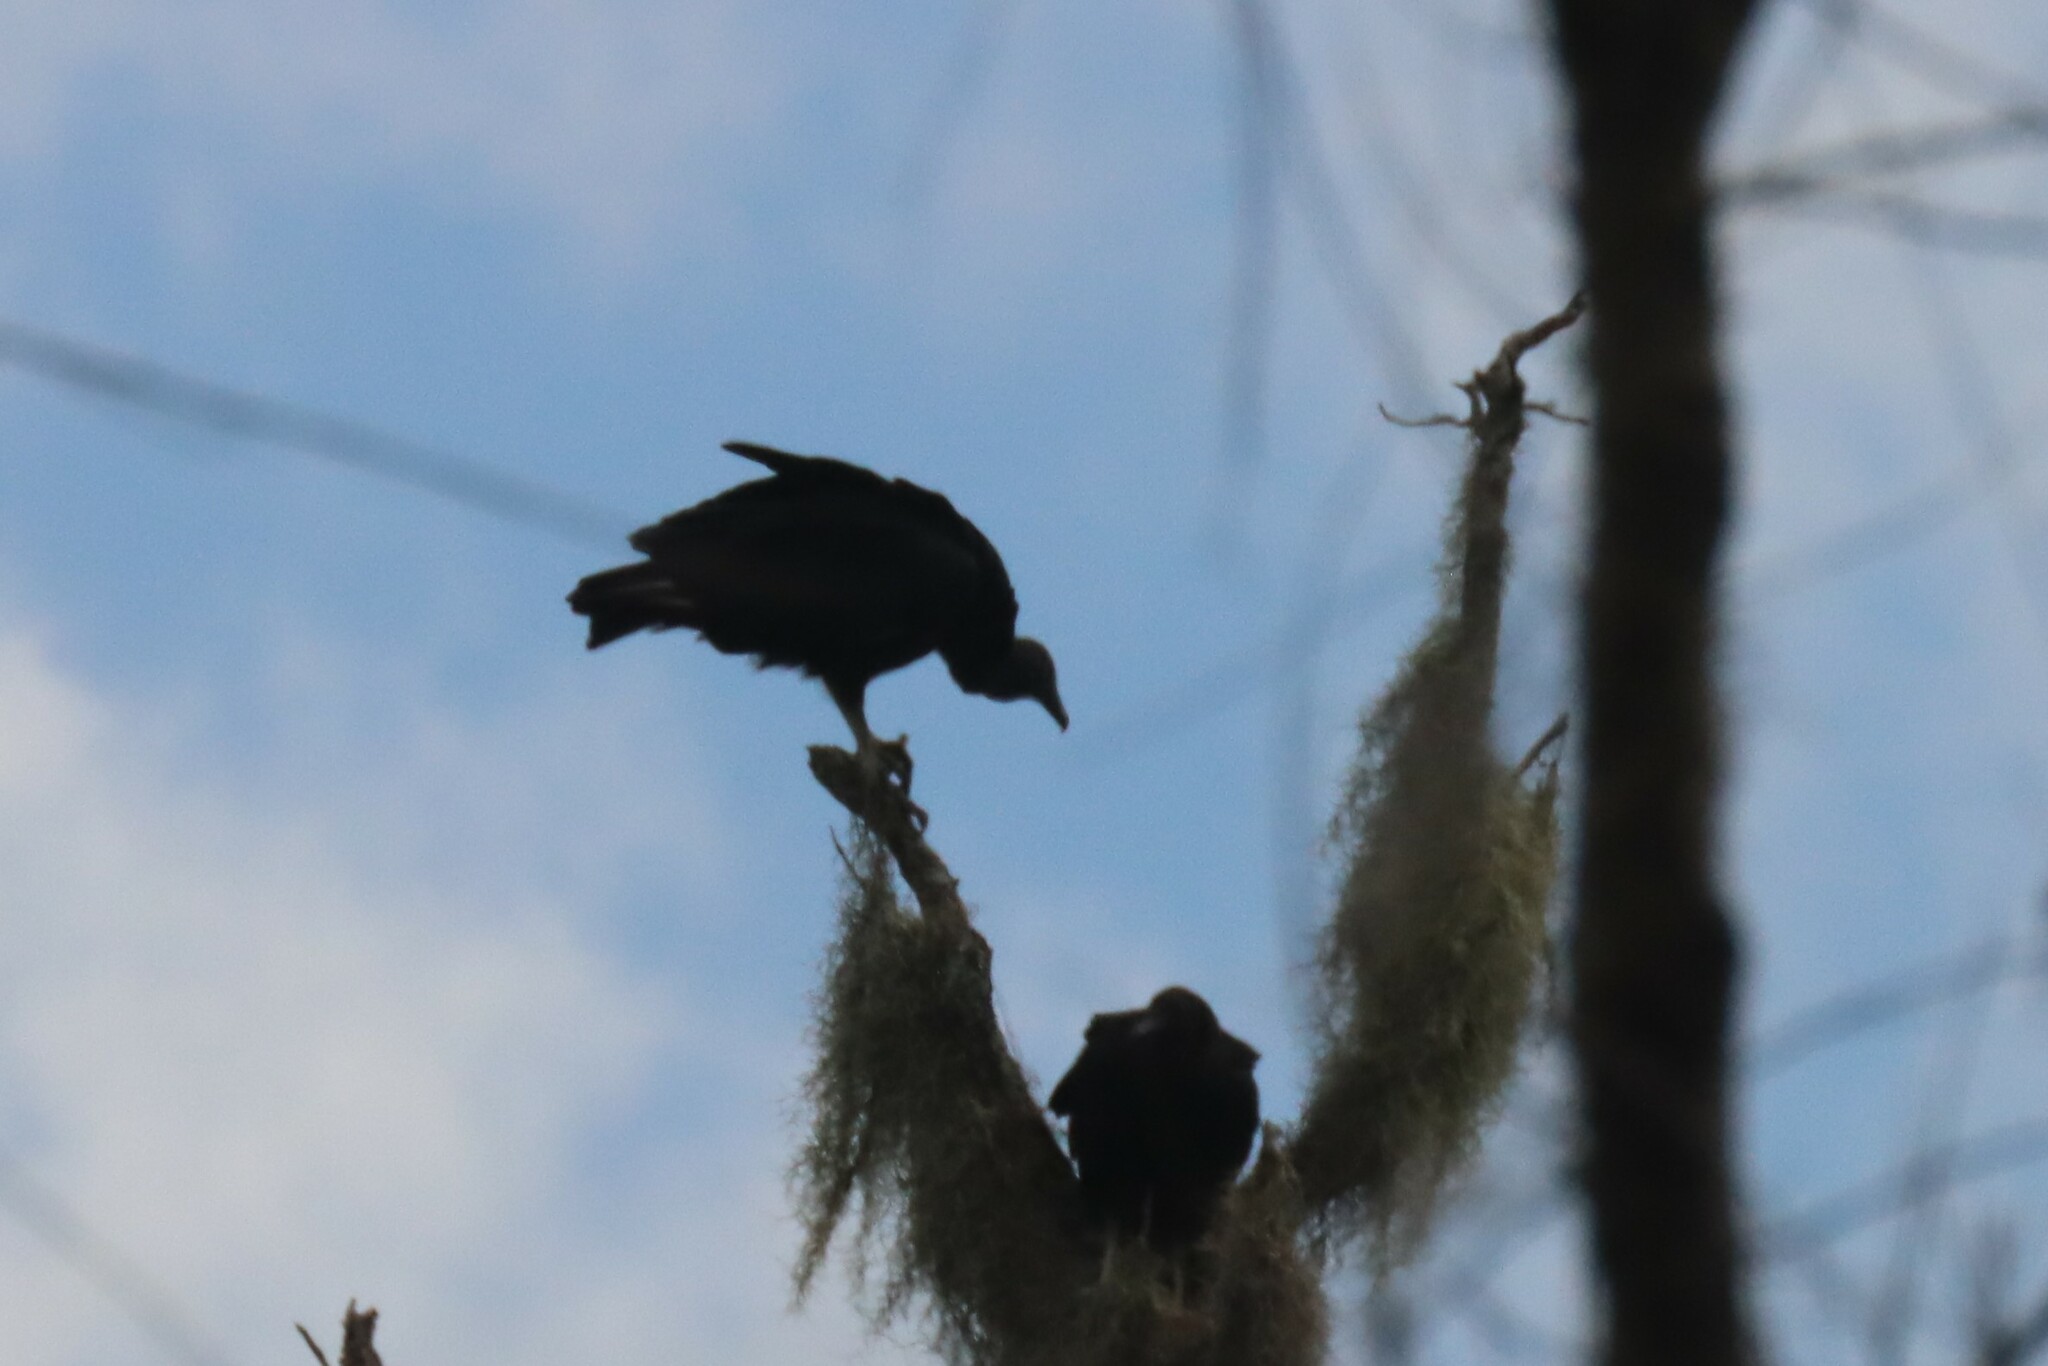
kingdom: Animalia
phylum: Chordata
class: Aves
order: Accipitriformes
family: Cathartidae
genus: Coragyps
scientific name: Coragyps atratus
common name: Black vulture
